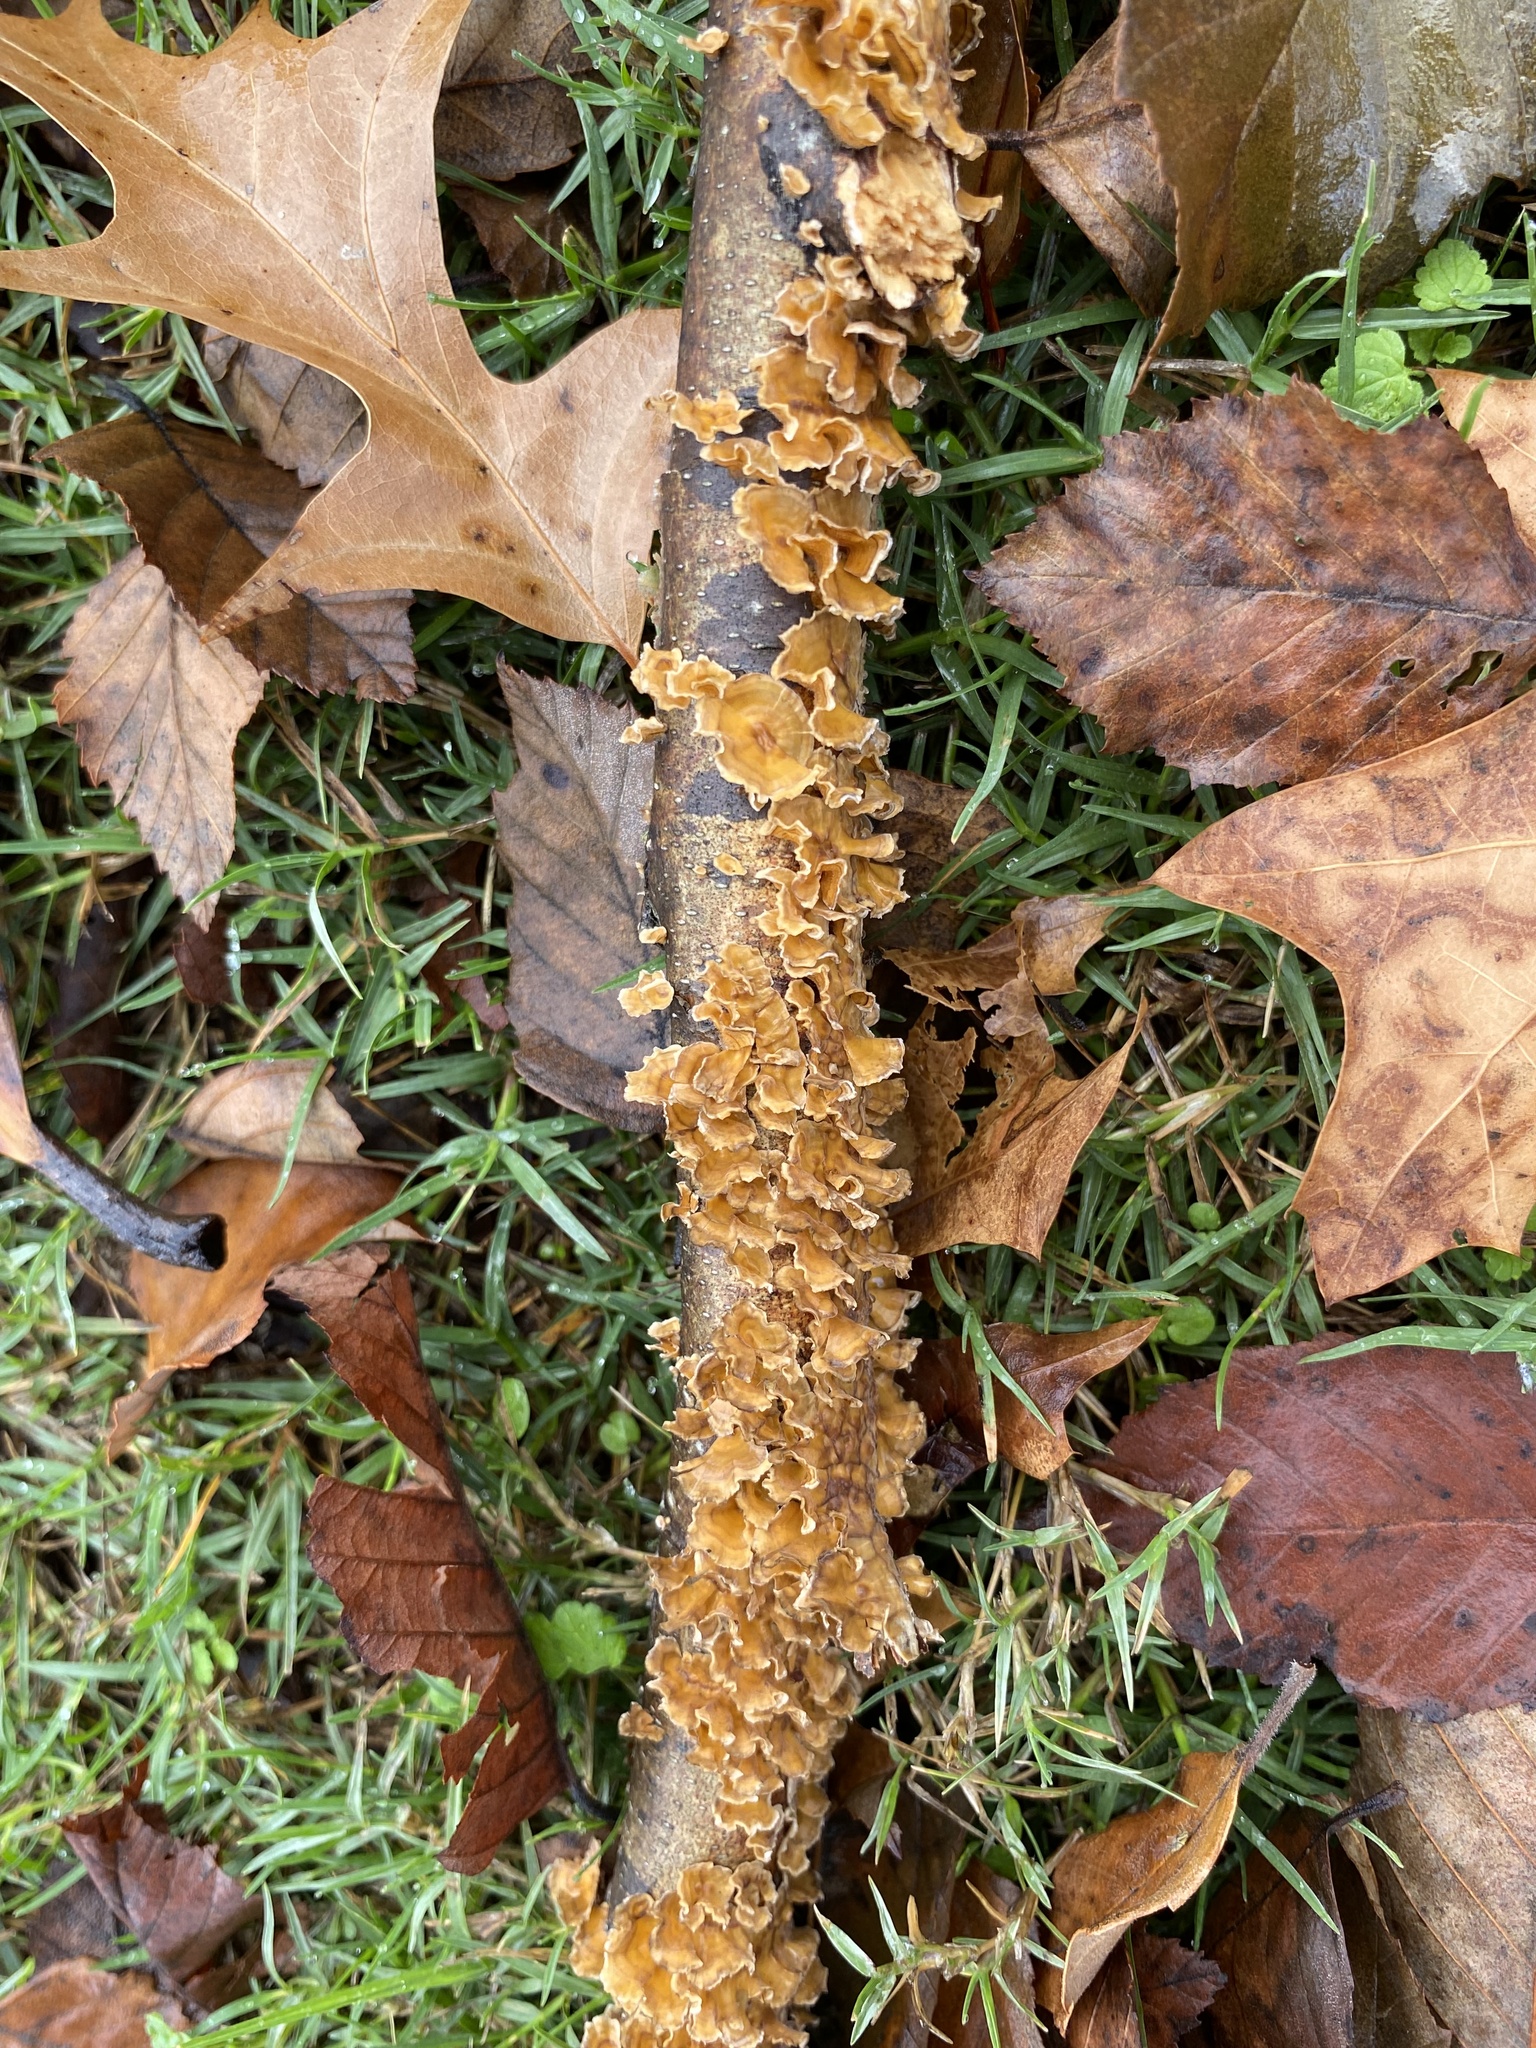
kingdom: Fungi
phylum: Basidiomycota
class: Agaricomycetes
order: Russulales
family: Stereaceae
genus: Stereum
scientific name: Stereum complicatum
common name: Crowded parchment
